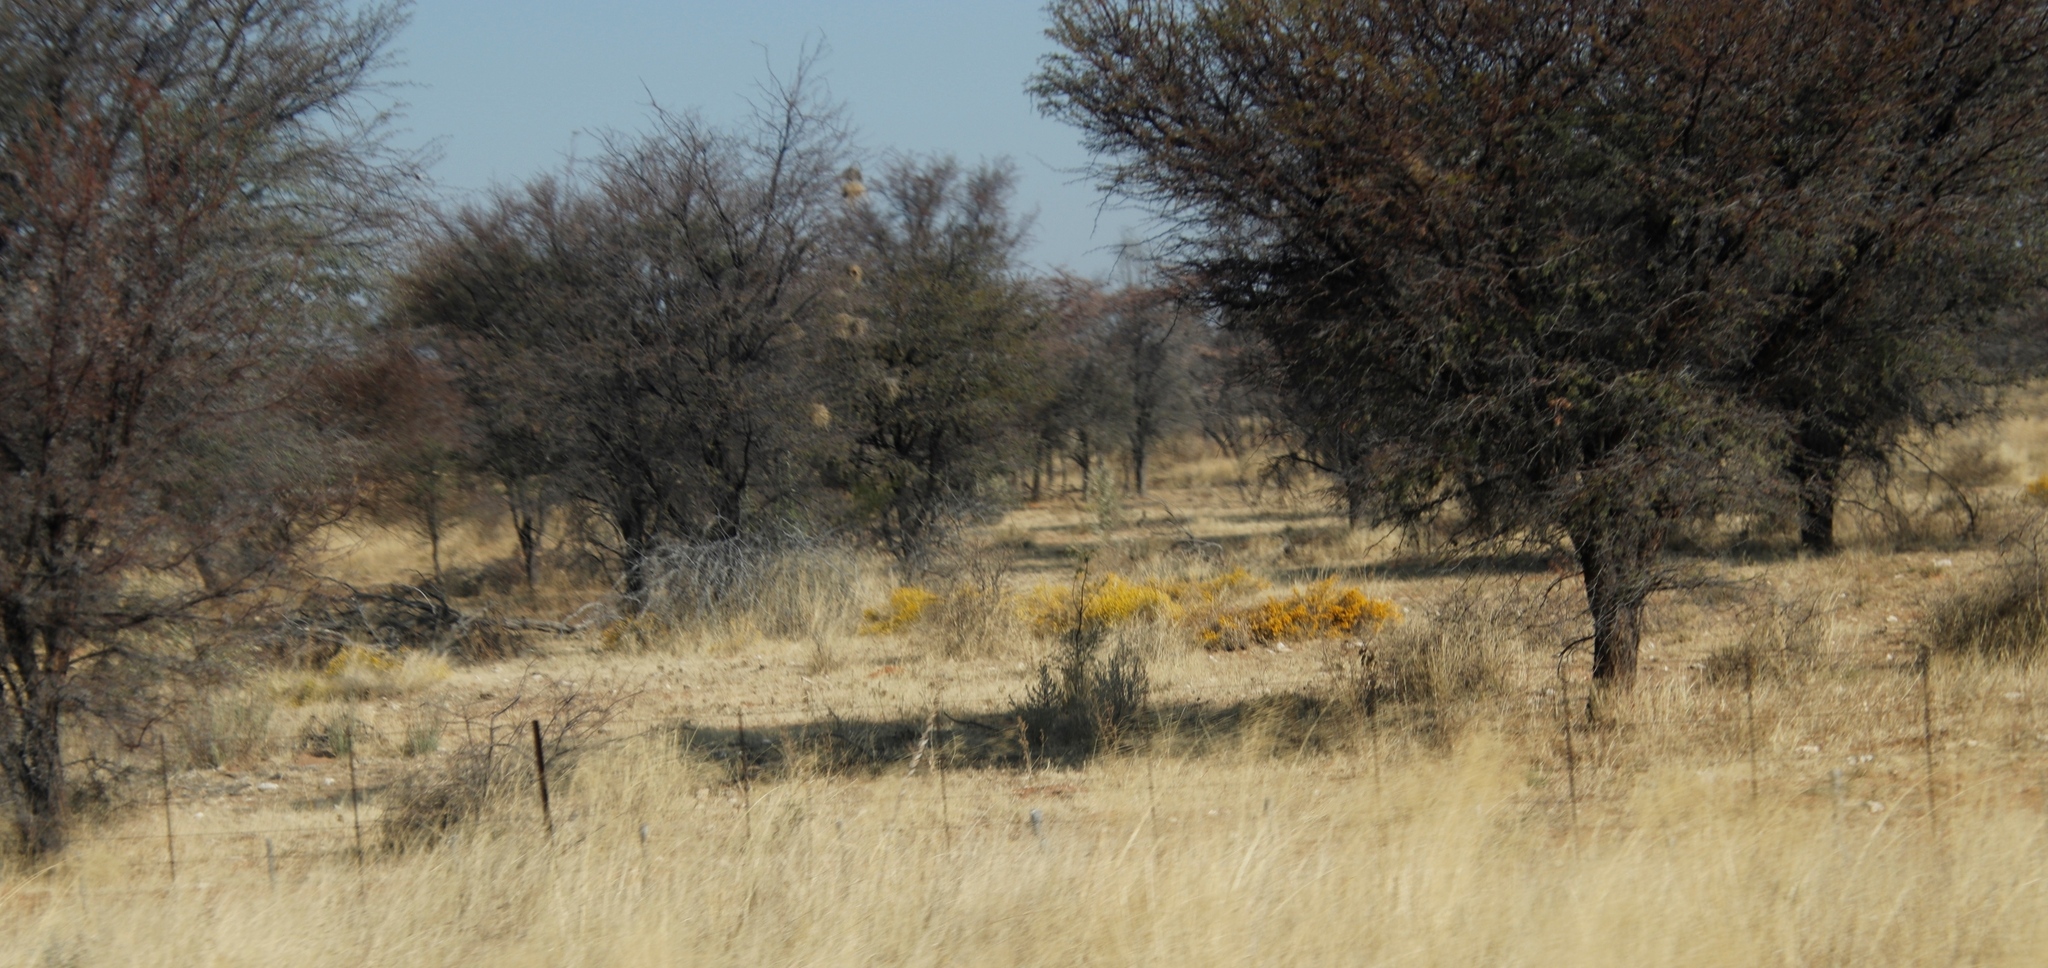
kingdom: Plantae
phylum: Tracheophyta
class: Magnoliopsida
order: Malvales
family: Thymelaeaceae
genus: Gnidia
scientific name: Gnidia polycephala
